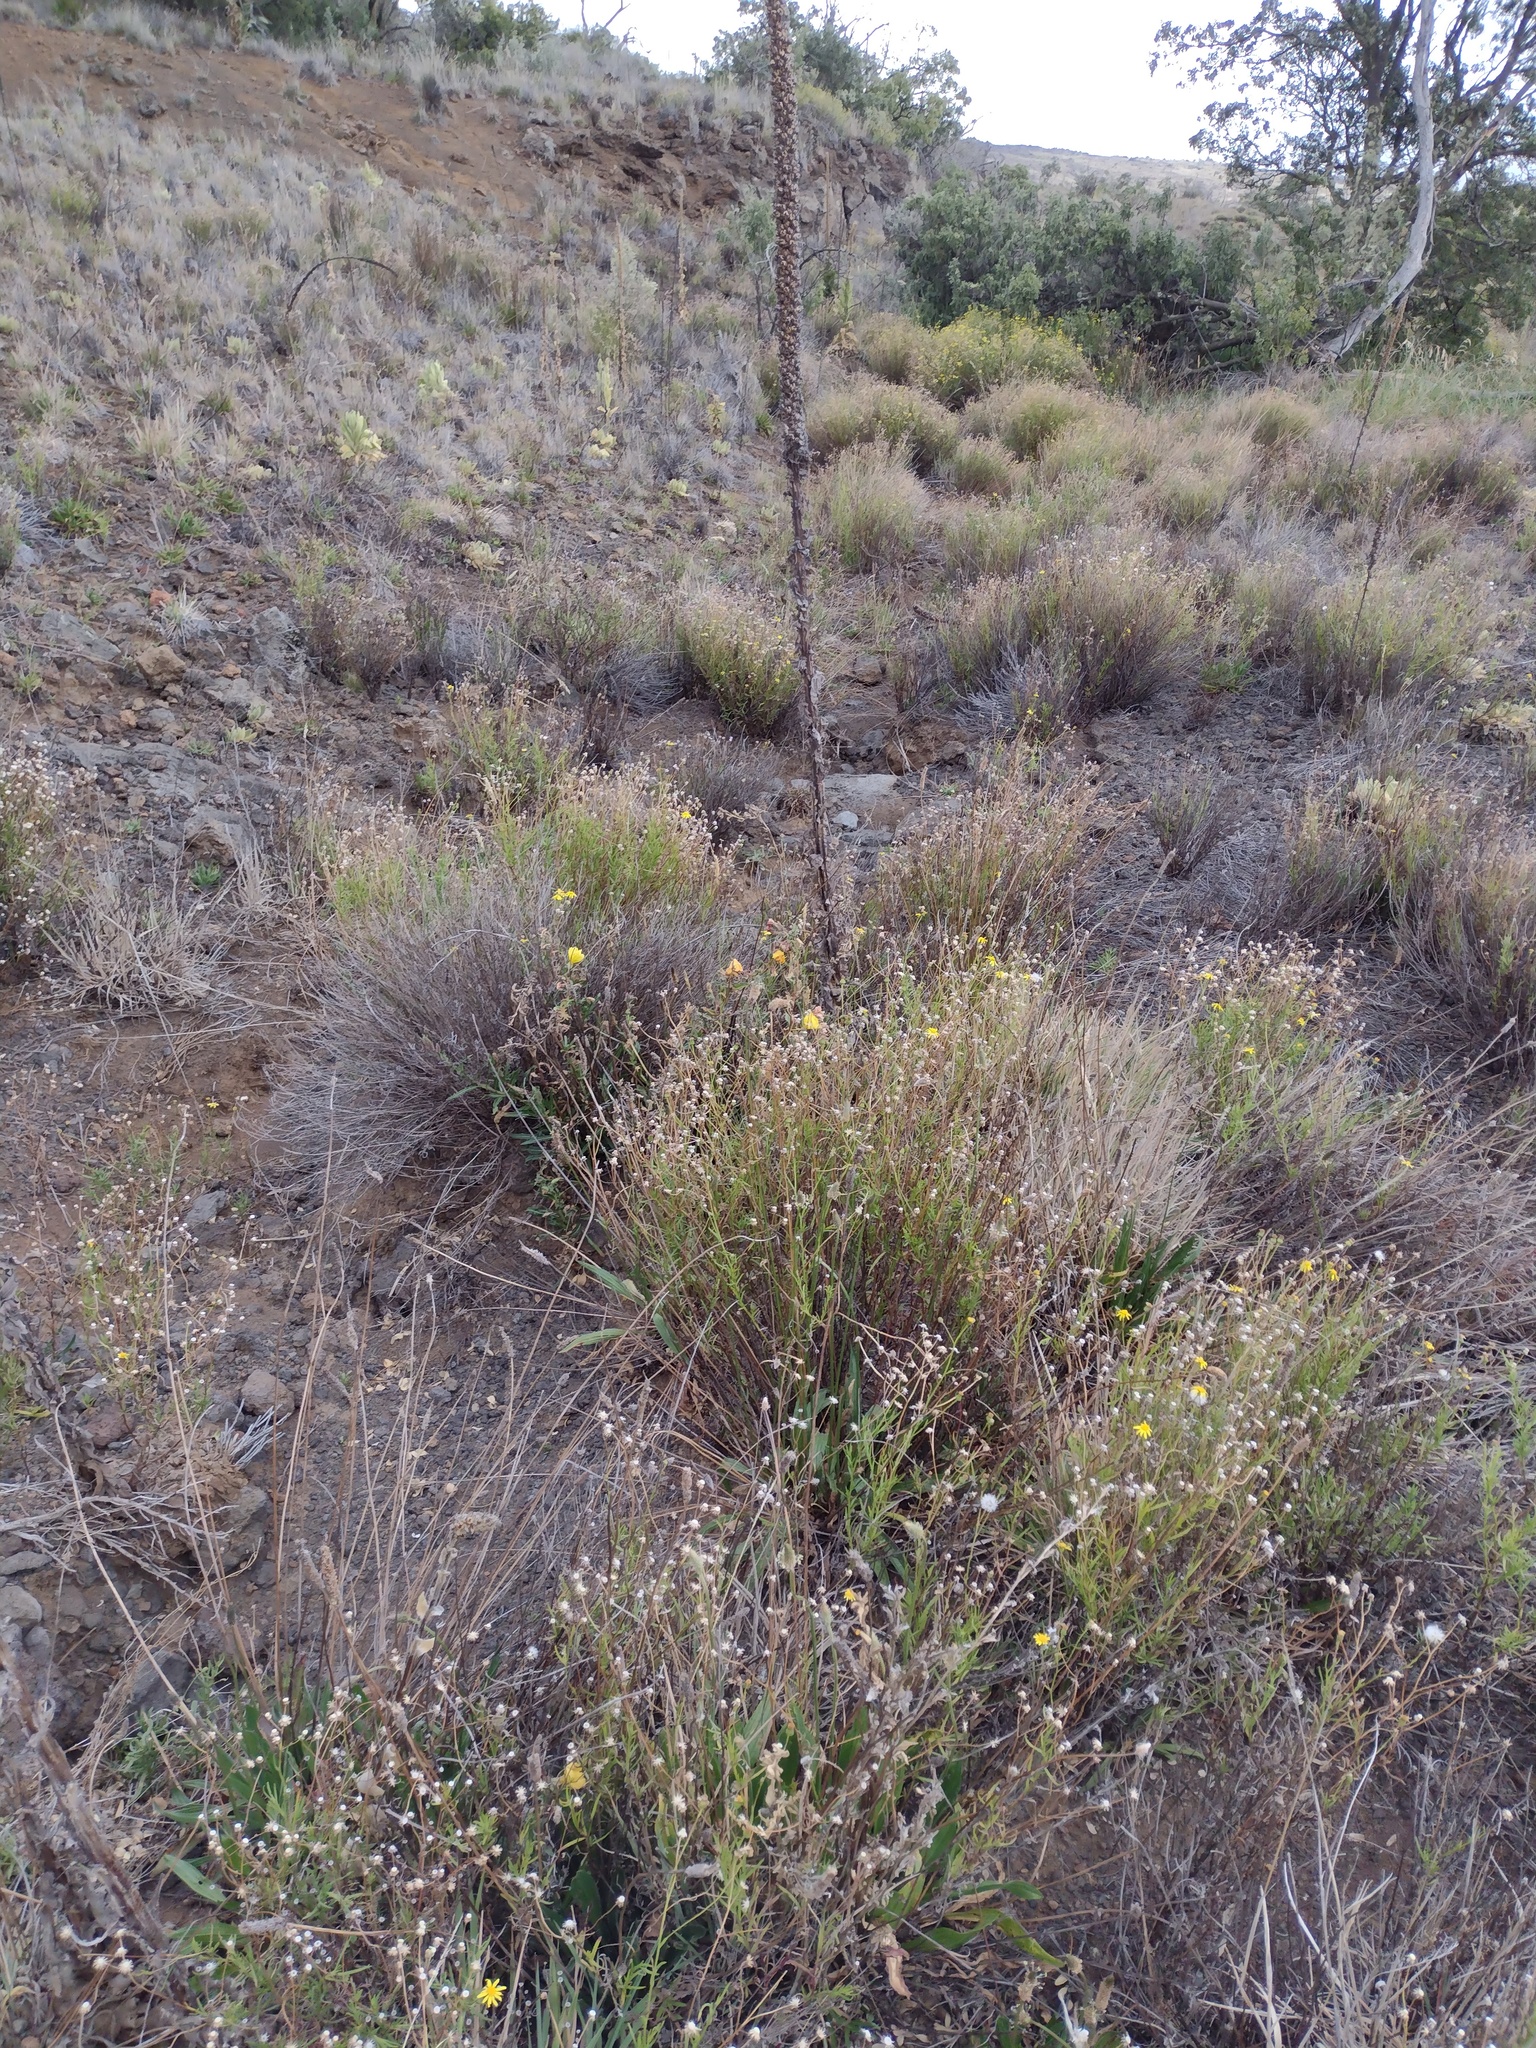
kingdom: Plantae
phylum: Tracheophyta
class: Magnoliopsida
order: Lamiales
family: Scrophulariaceae
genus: Verbascum
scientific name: Verbascum thapsus
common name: Common mullein
